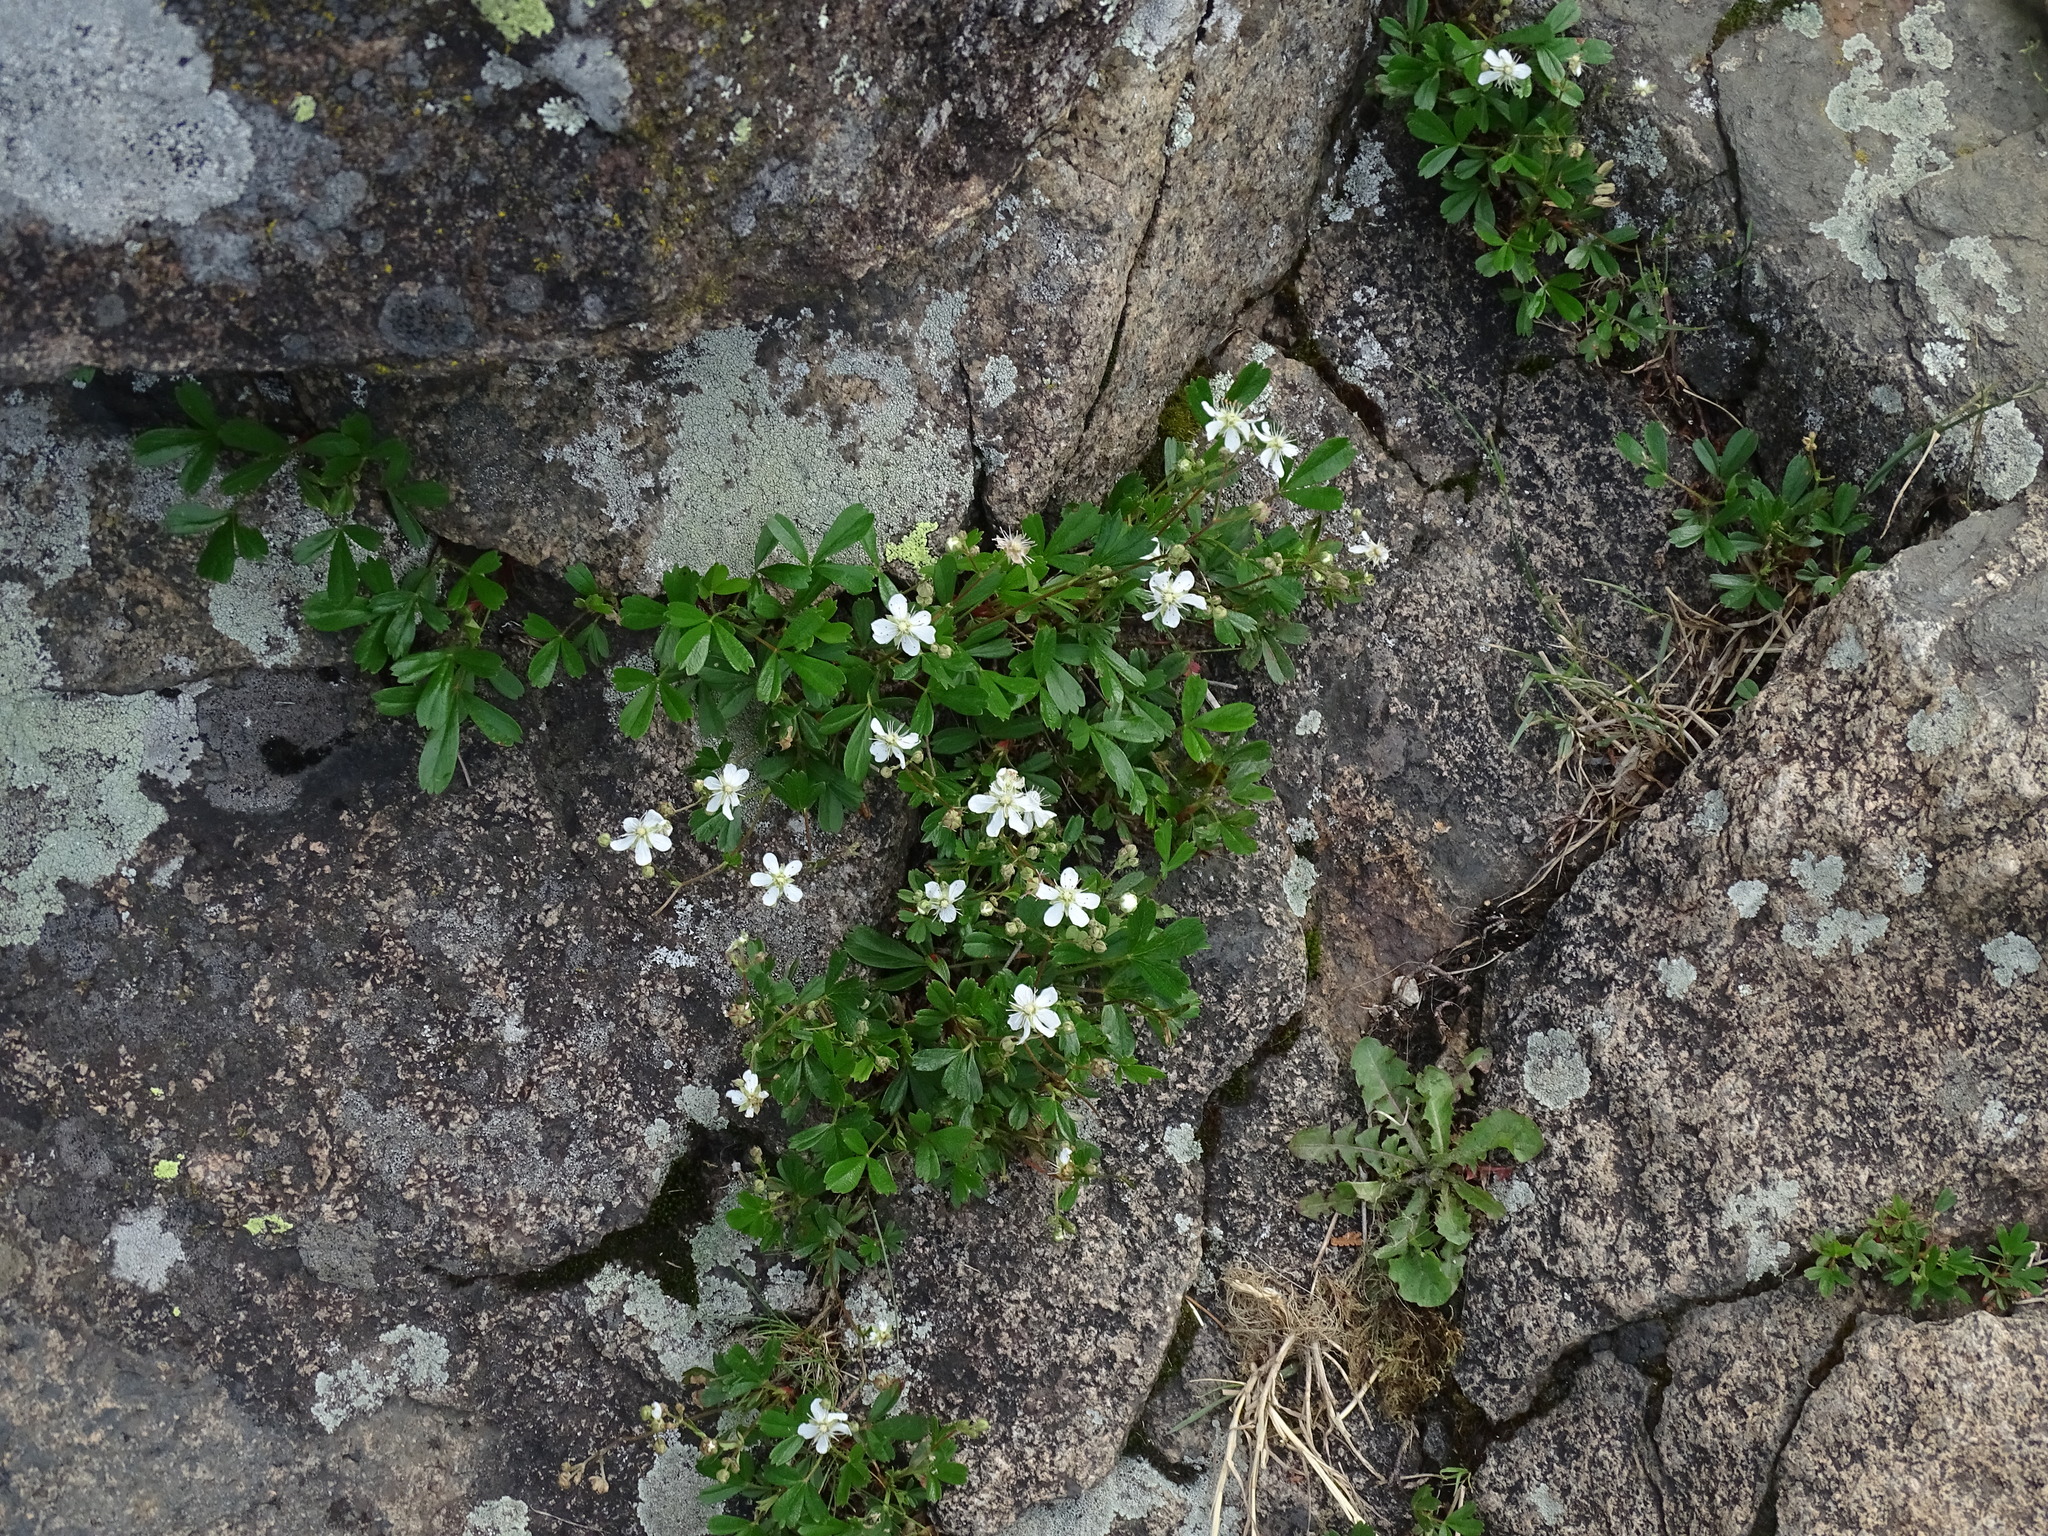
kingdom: Plantae
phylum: Tracheophyta
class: Magnoliopsida
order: Rosales
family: Rosaceae
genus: Sibbaldia
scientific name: Sibbaldia tridentata
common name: Three-toothed cinquefoil
